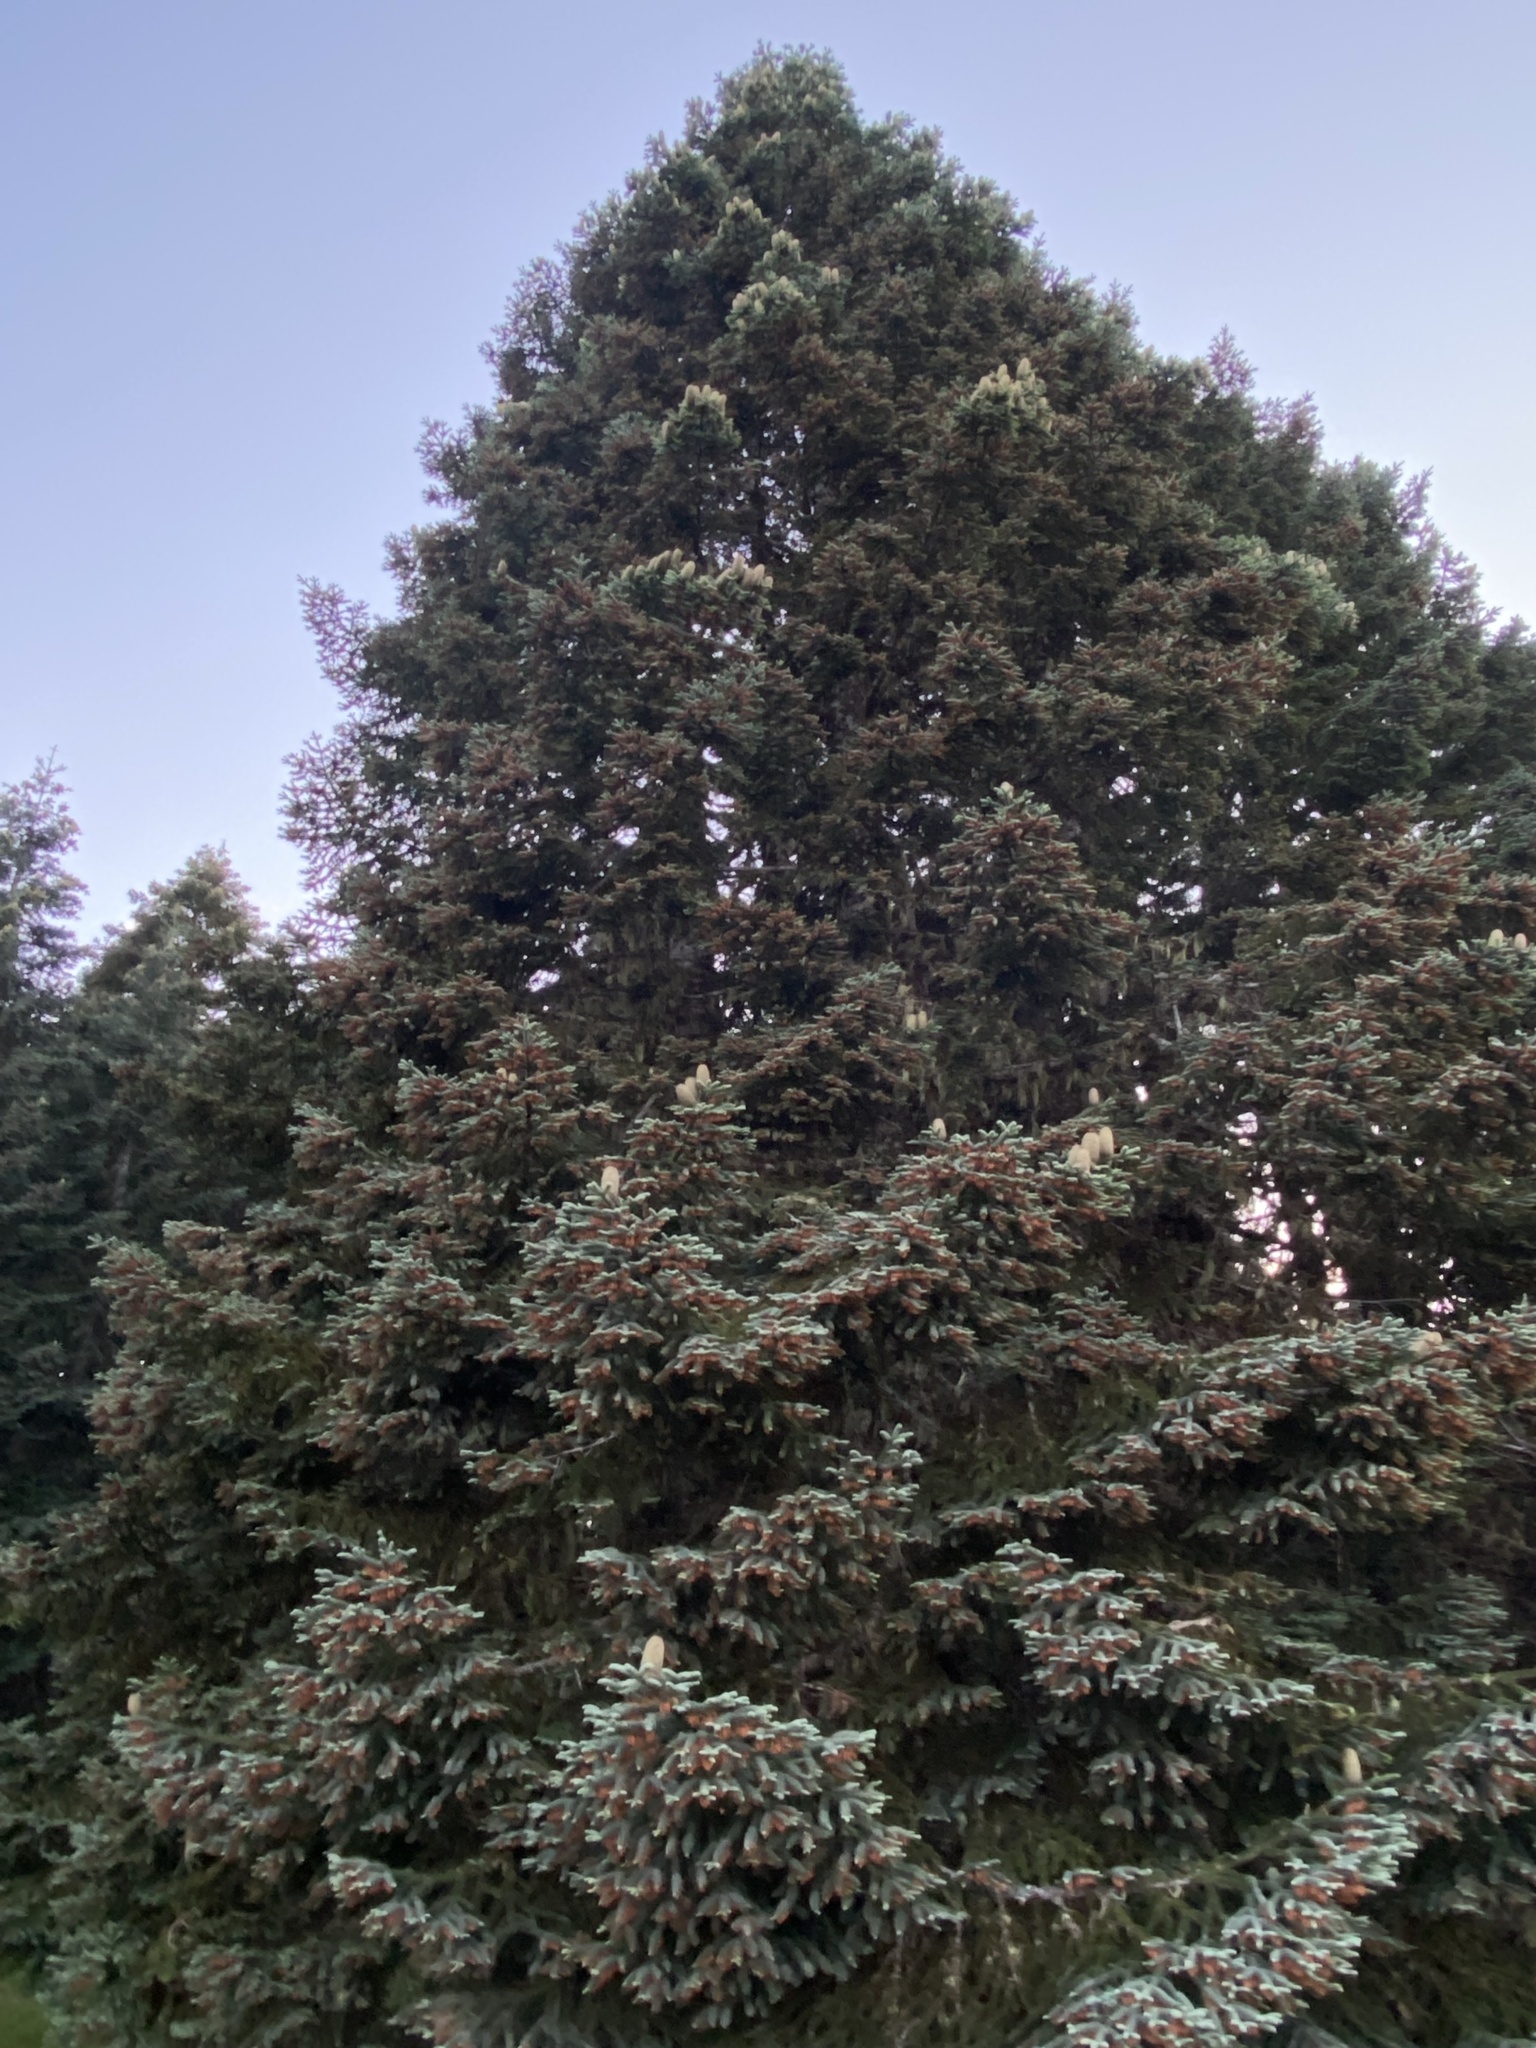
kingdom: Plantae
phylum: Tracheophyta
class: Pinopsida
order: Pinales
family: Pinaceae
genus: Abies
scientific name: Abies procera
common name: Noble fir
